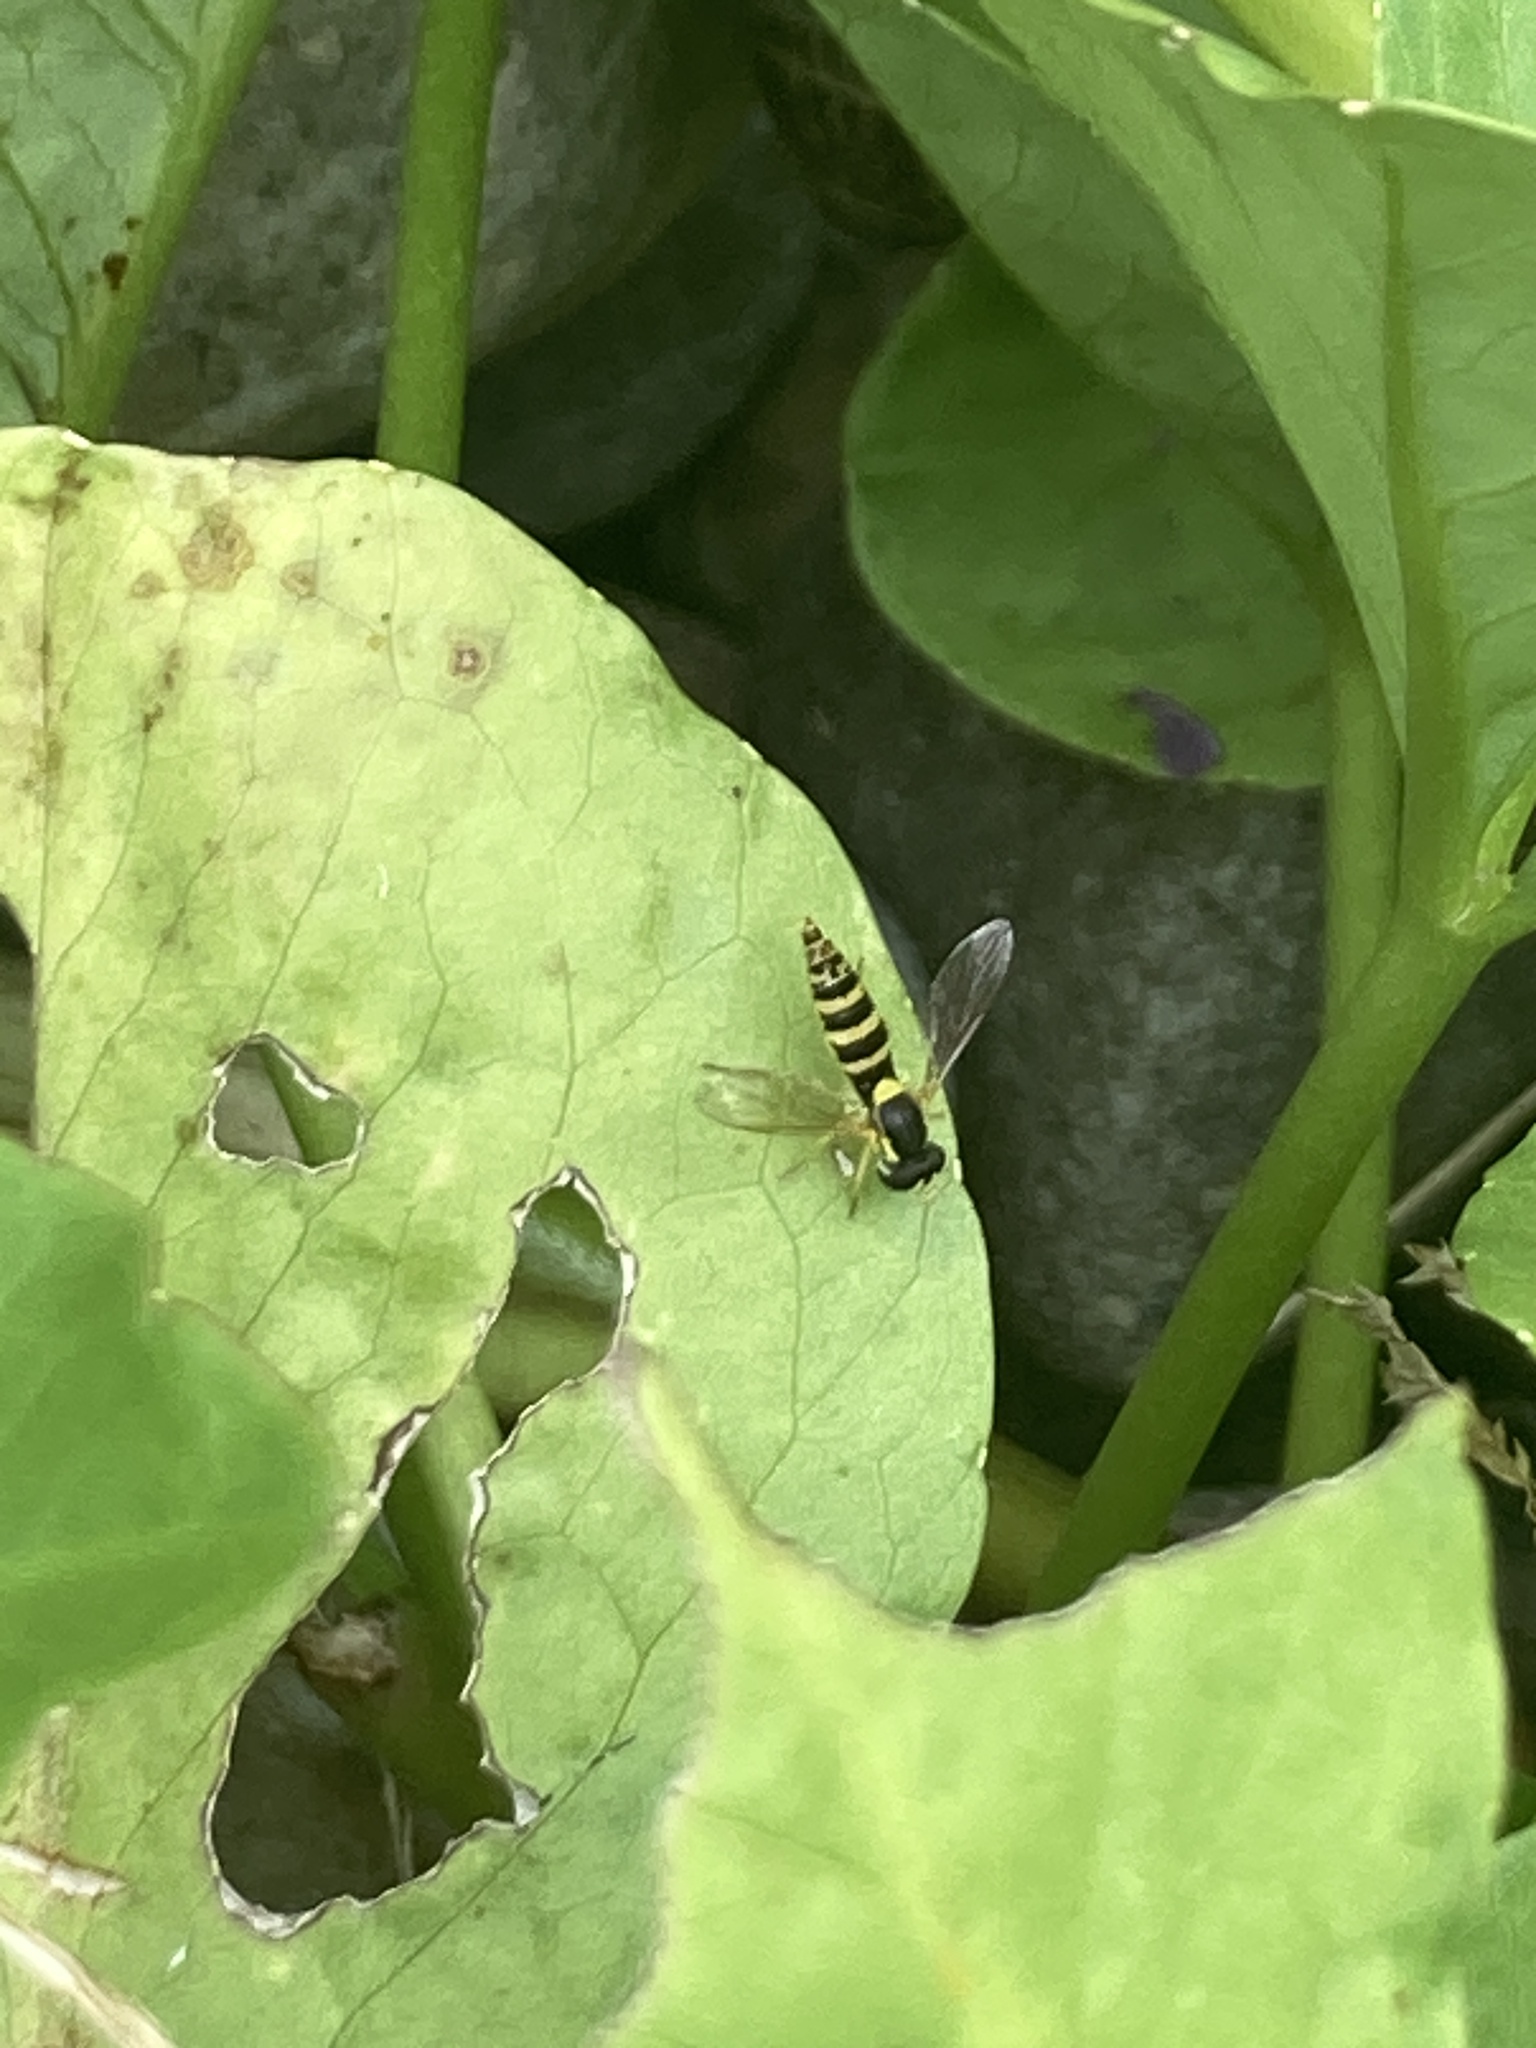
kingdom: Animalia
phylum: Arthropoda
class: Insecta
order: Diptera
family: Syrphidae
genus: Sphaerophoria
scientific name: Sphaerophoria
